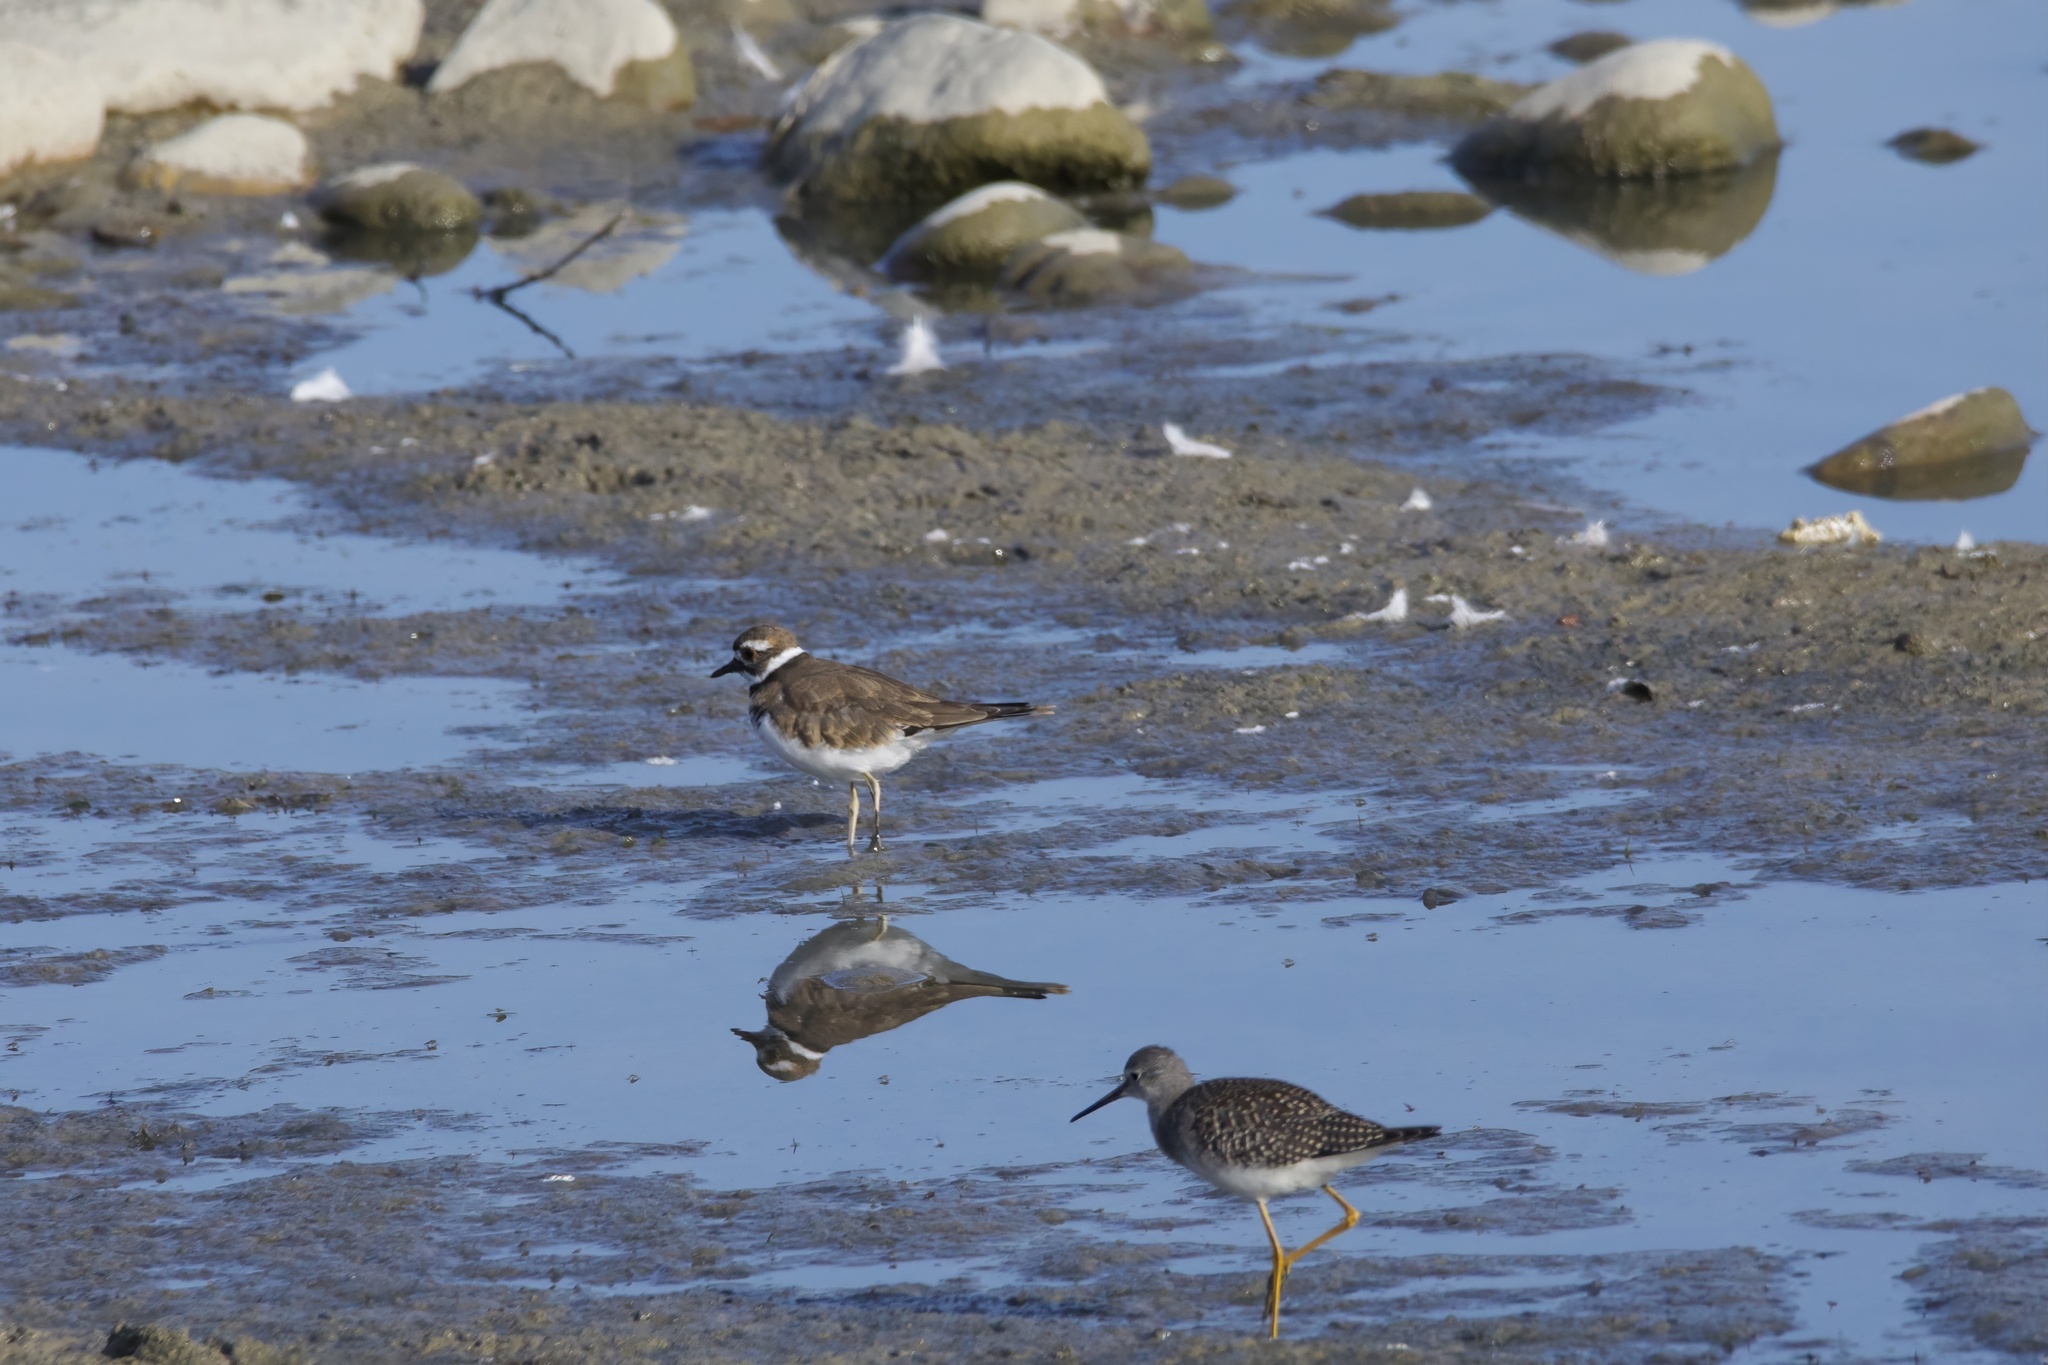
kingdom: Animalia
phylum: Chordata
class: Aves
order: Charadriiformes
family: Charadriidae
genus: Charadrius
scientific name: Charadrius vociferus
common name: Killdeer
